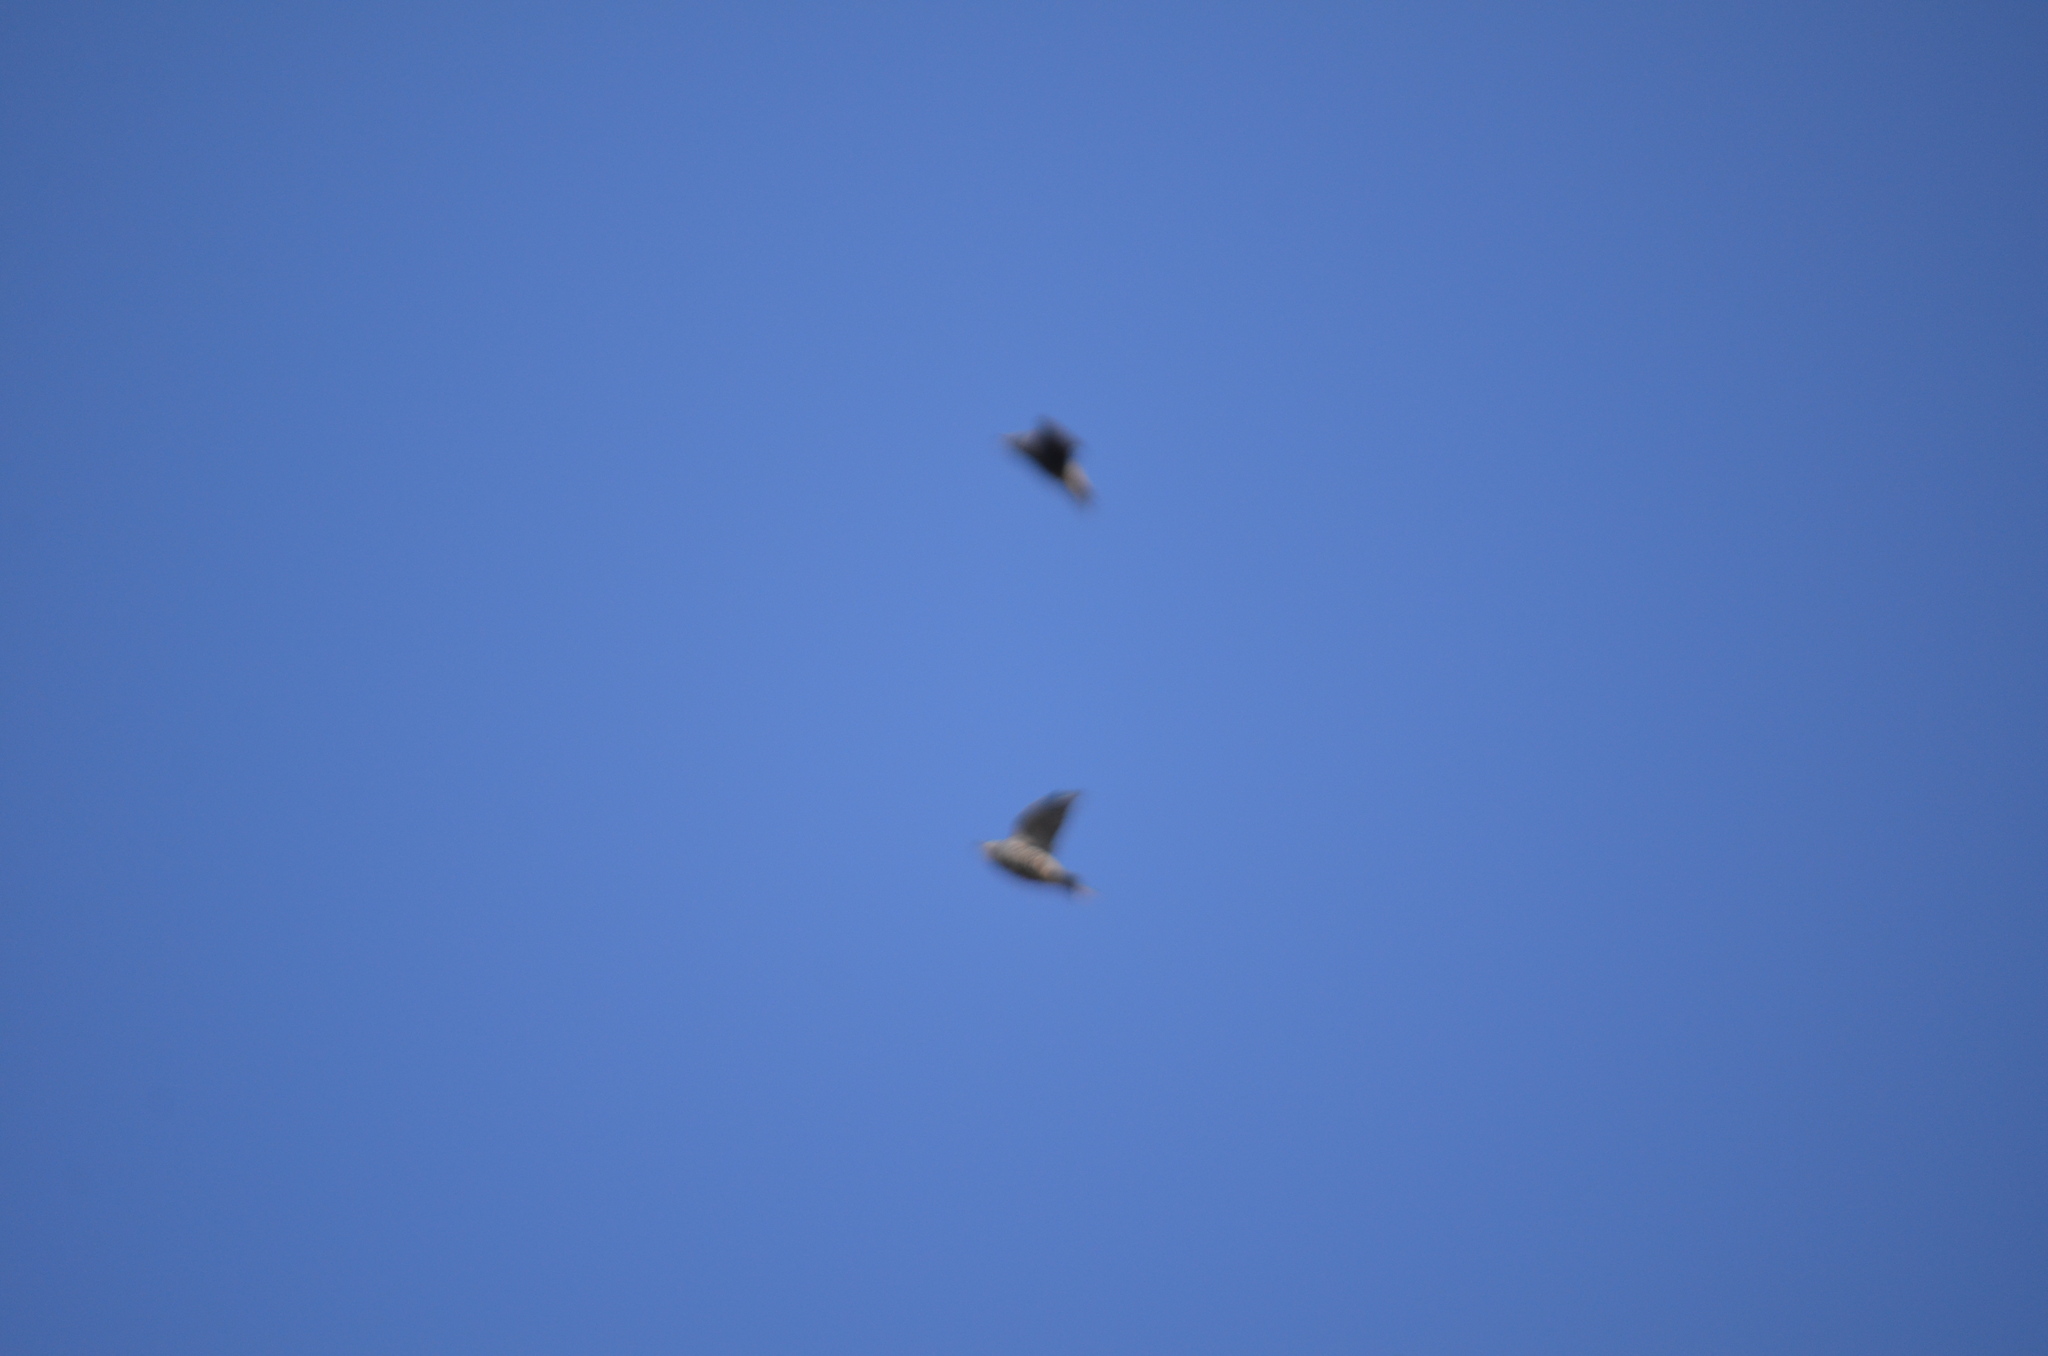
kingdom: Animalia
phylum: Chordata
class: Aves
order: Passeriformes
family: Sturnidae
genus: Sturnus
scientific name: Sturnus vulgaris
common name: Common starling
